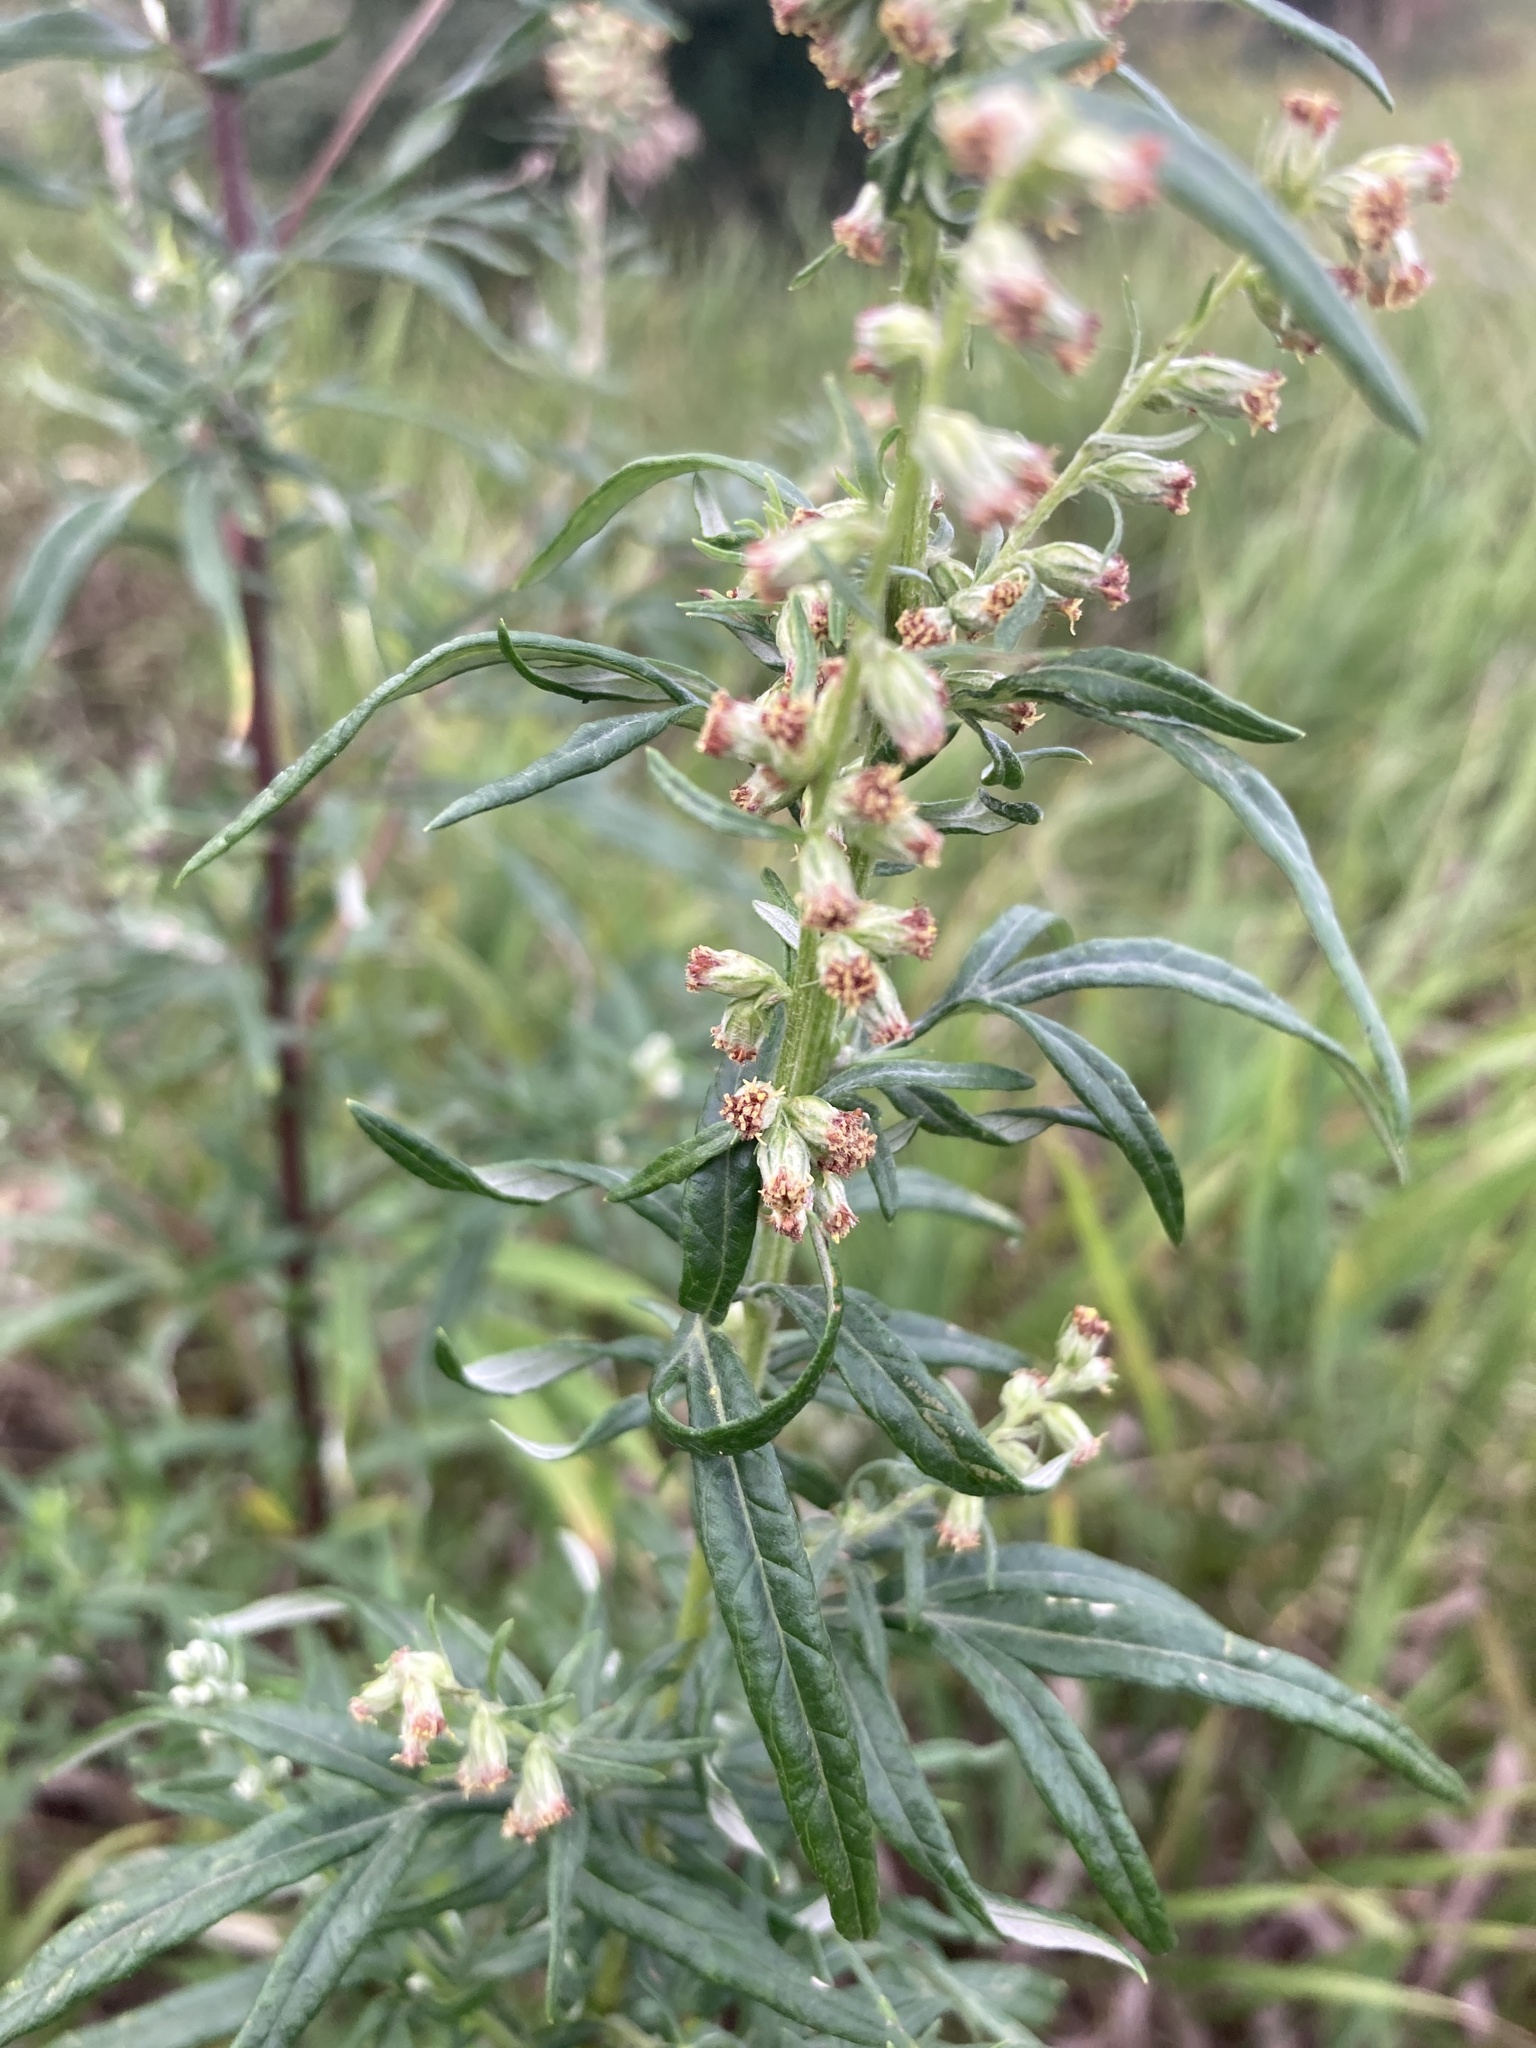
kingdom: Plantae
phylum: Tracheophyta
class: Magnoliopsida
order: Asterales
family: Asteraceae
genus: Artemisia
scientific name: Artemisia vulgaris
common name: Mugwort
